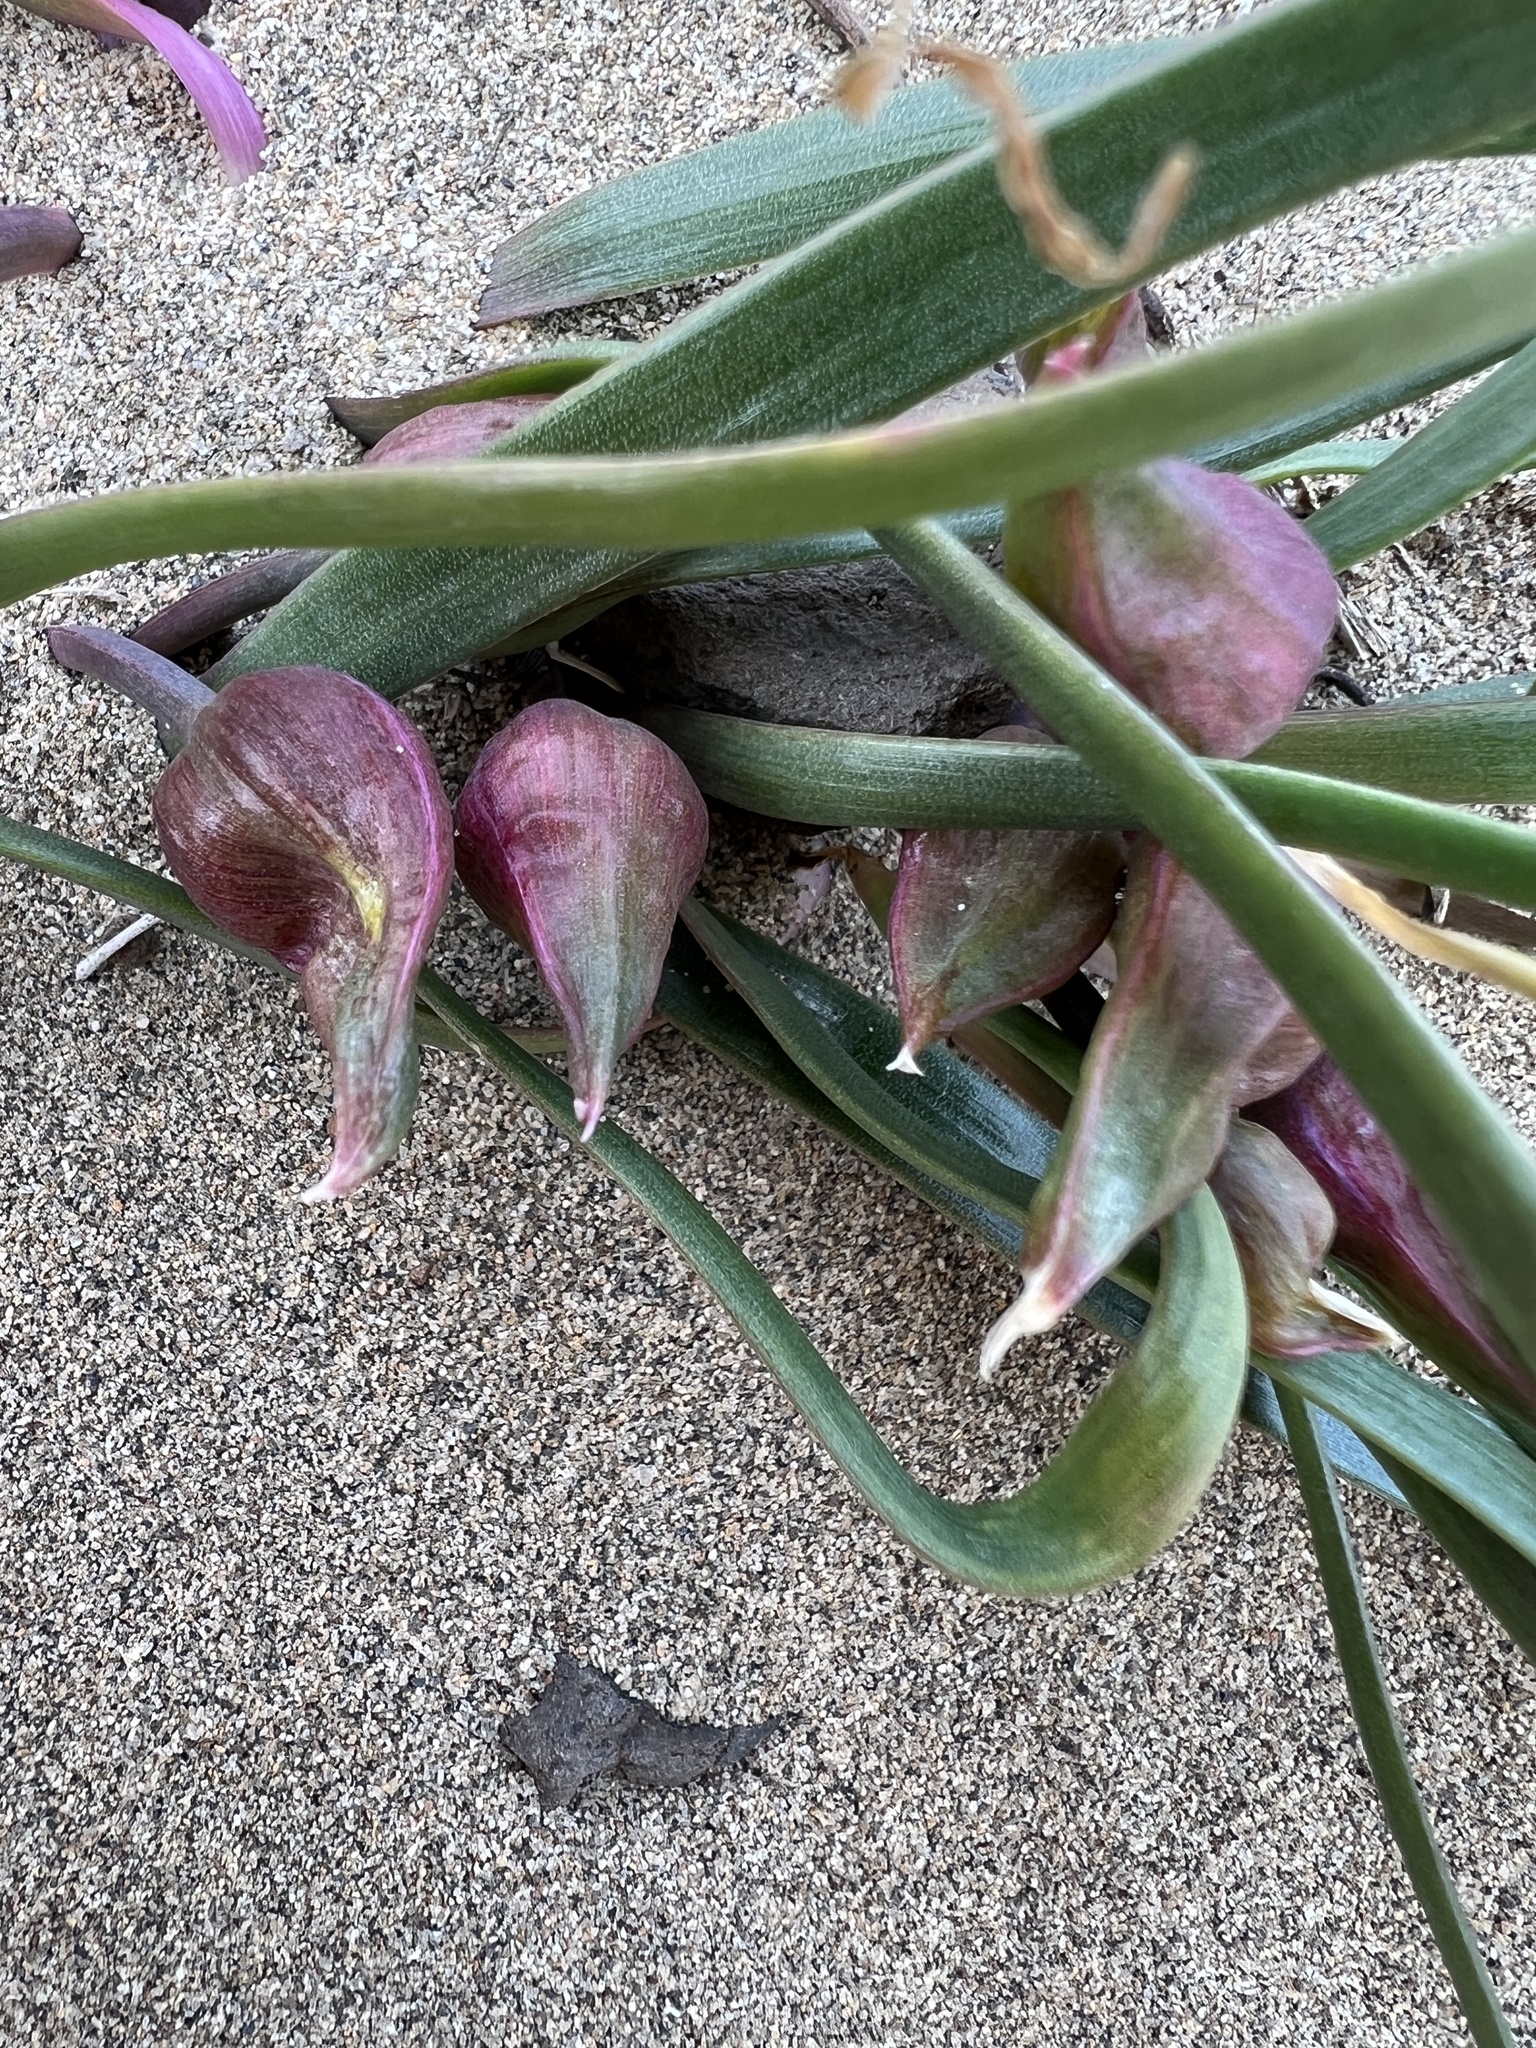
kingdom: Plantae
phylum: Tracheophyta
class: Liliopsida
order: Asparagales
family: Amaryllidaceae
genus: Allium
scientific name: Allium robinsonii
